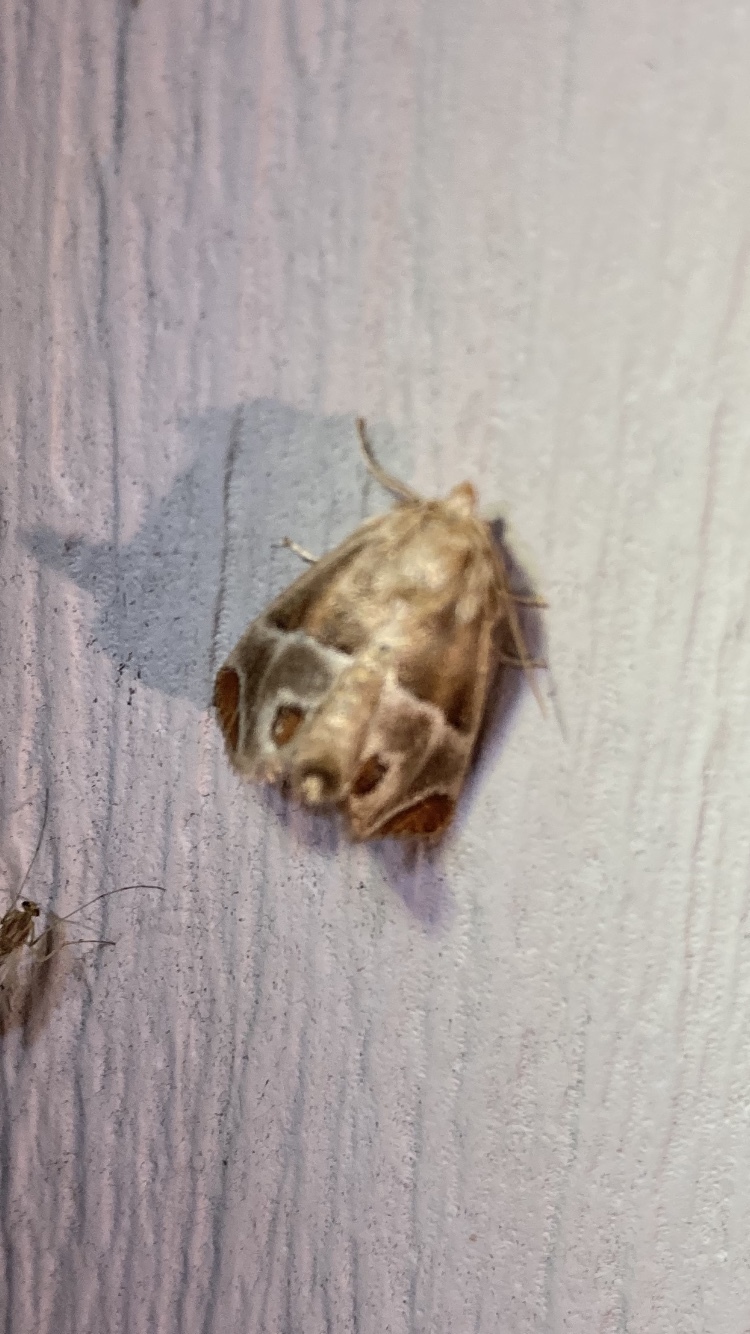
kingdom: Animalia
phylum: Arthropoda
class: Insecta
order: Lepidoptera
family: Limacodidae
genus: Apoda
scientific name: Apoda biguttata
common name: Shagreened slug moth
